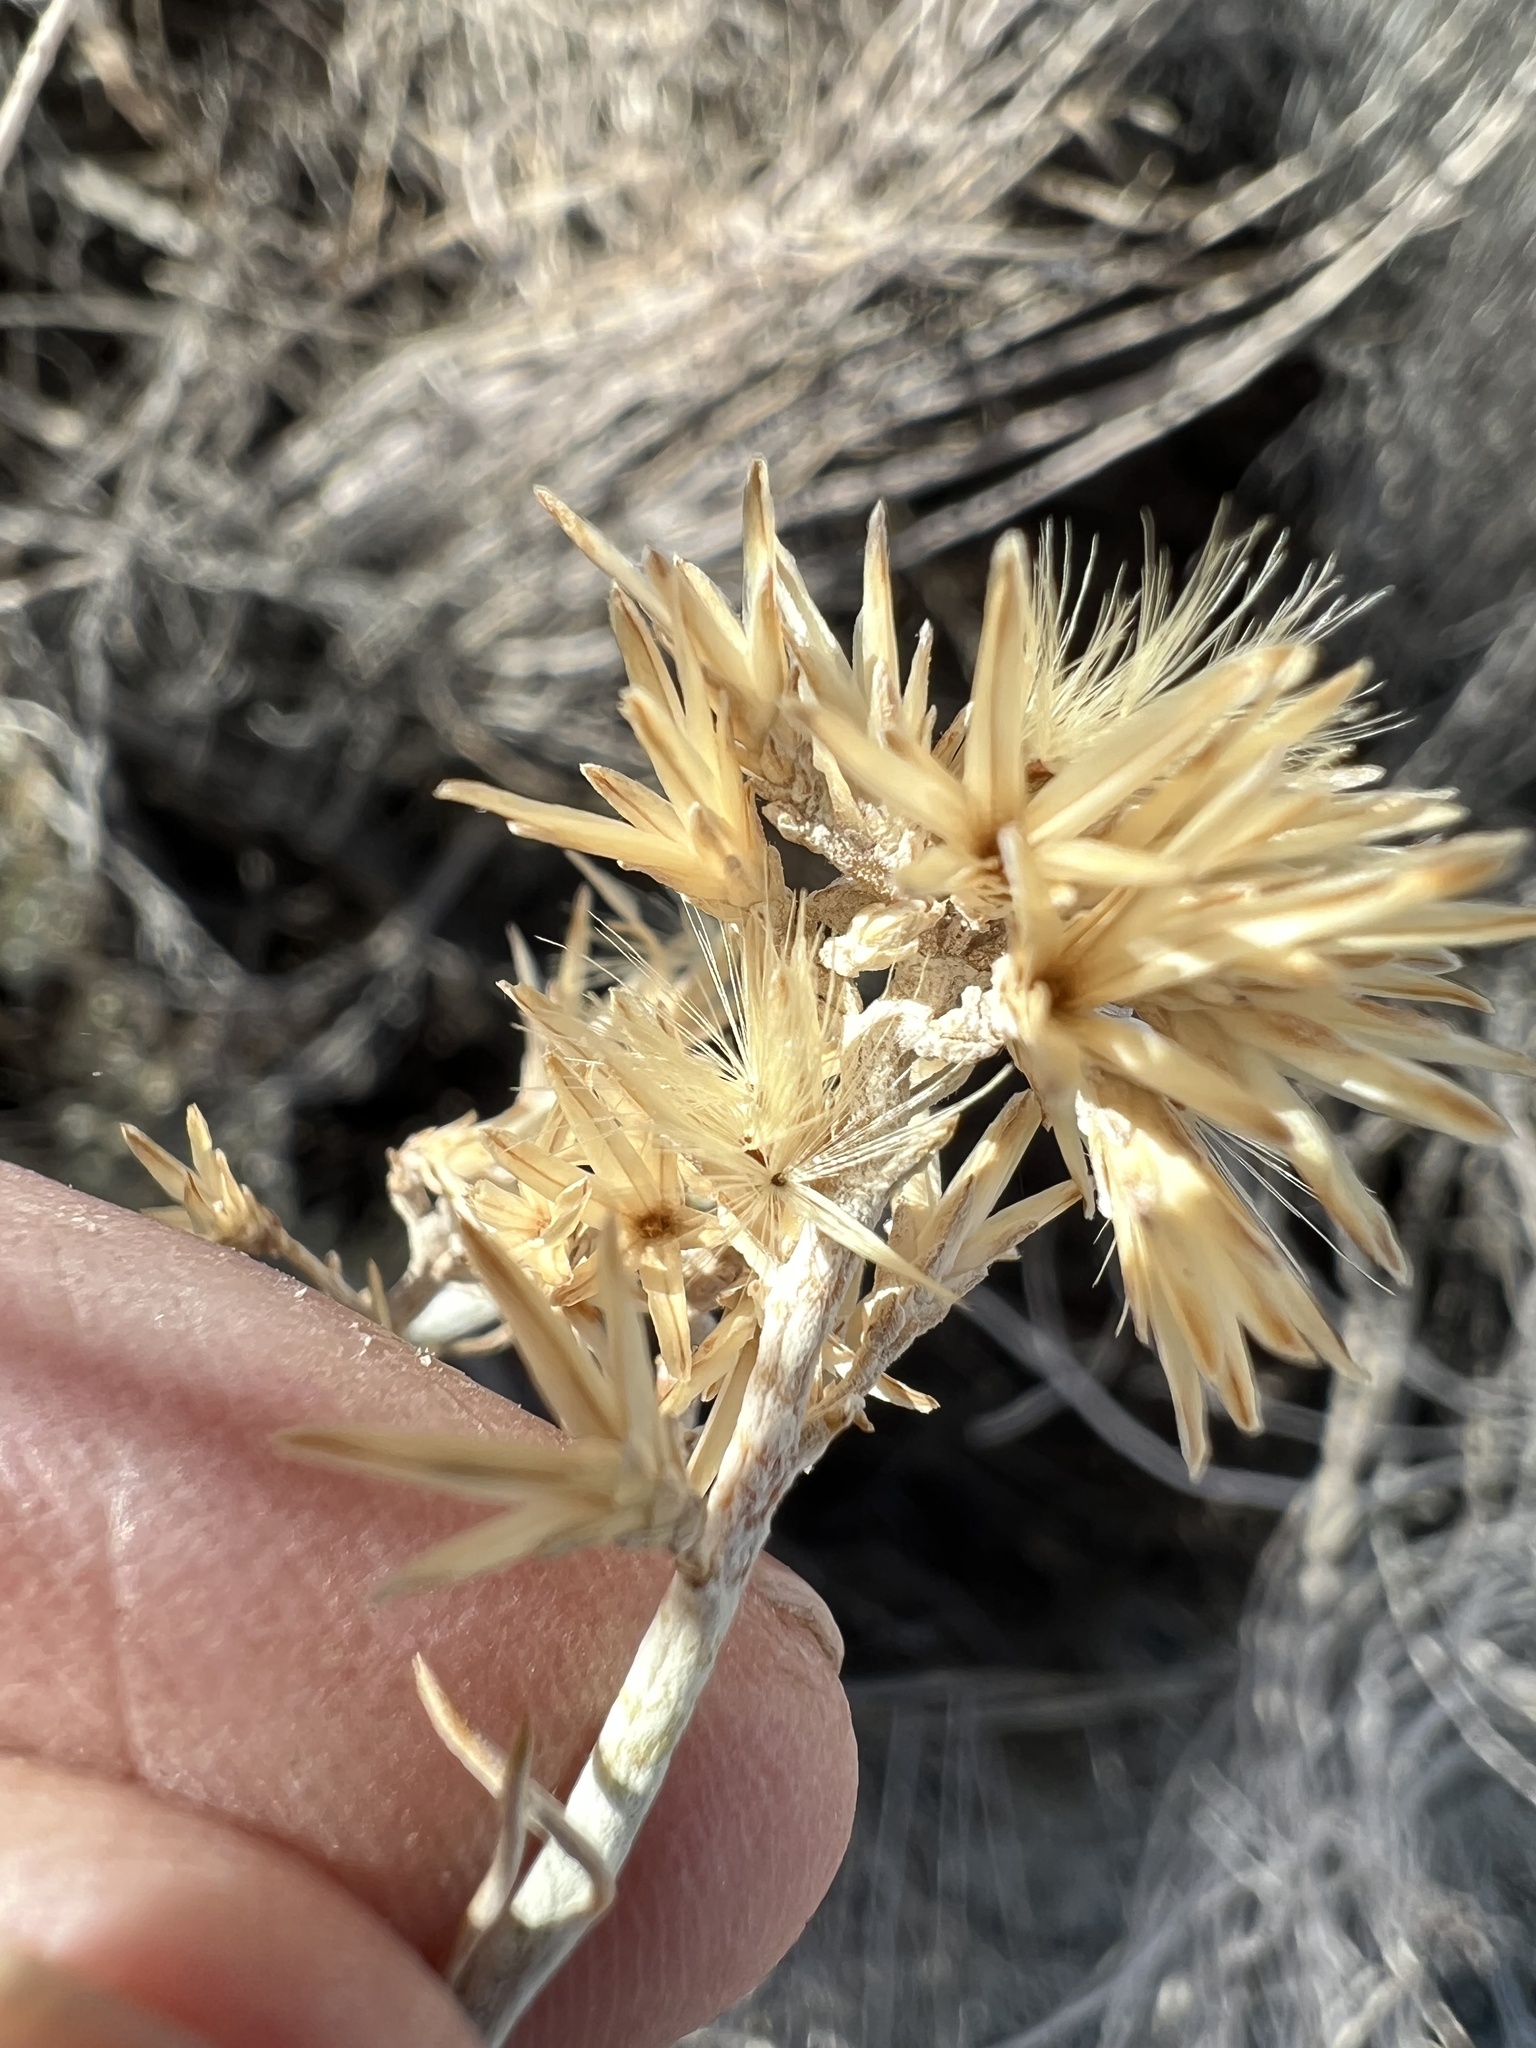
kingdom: Plantae
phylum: Tracheophyta
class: Magnoliopsida
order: Asterales
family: Asteraceae
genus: Ericameria
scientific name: Ericameria nauseosa
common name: Rubber rabbitbrush
